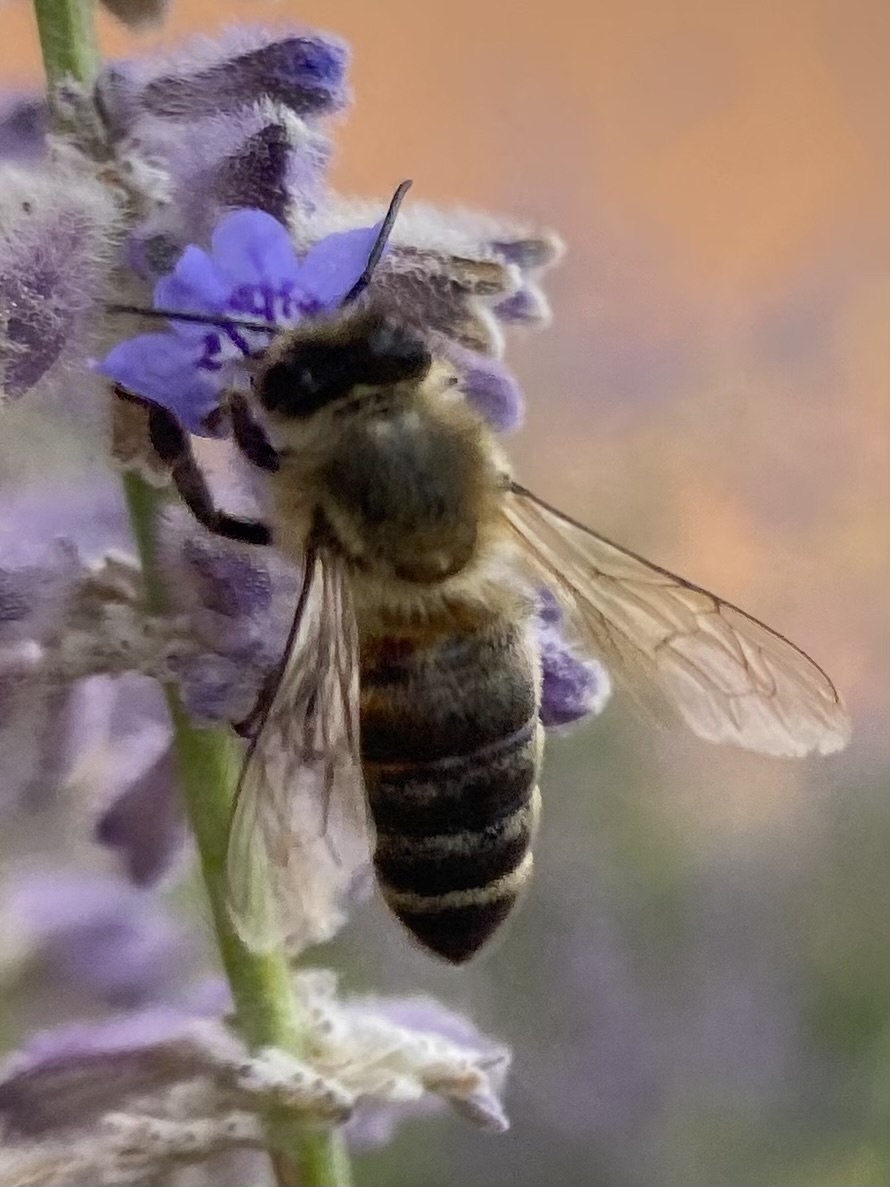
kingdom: Animalia
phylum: Arthropoda
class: Insecta
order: Hymenoptera
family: Apidae
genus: Apis
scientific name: Apis mellifera
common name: Honey bee
